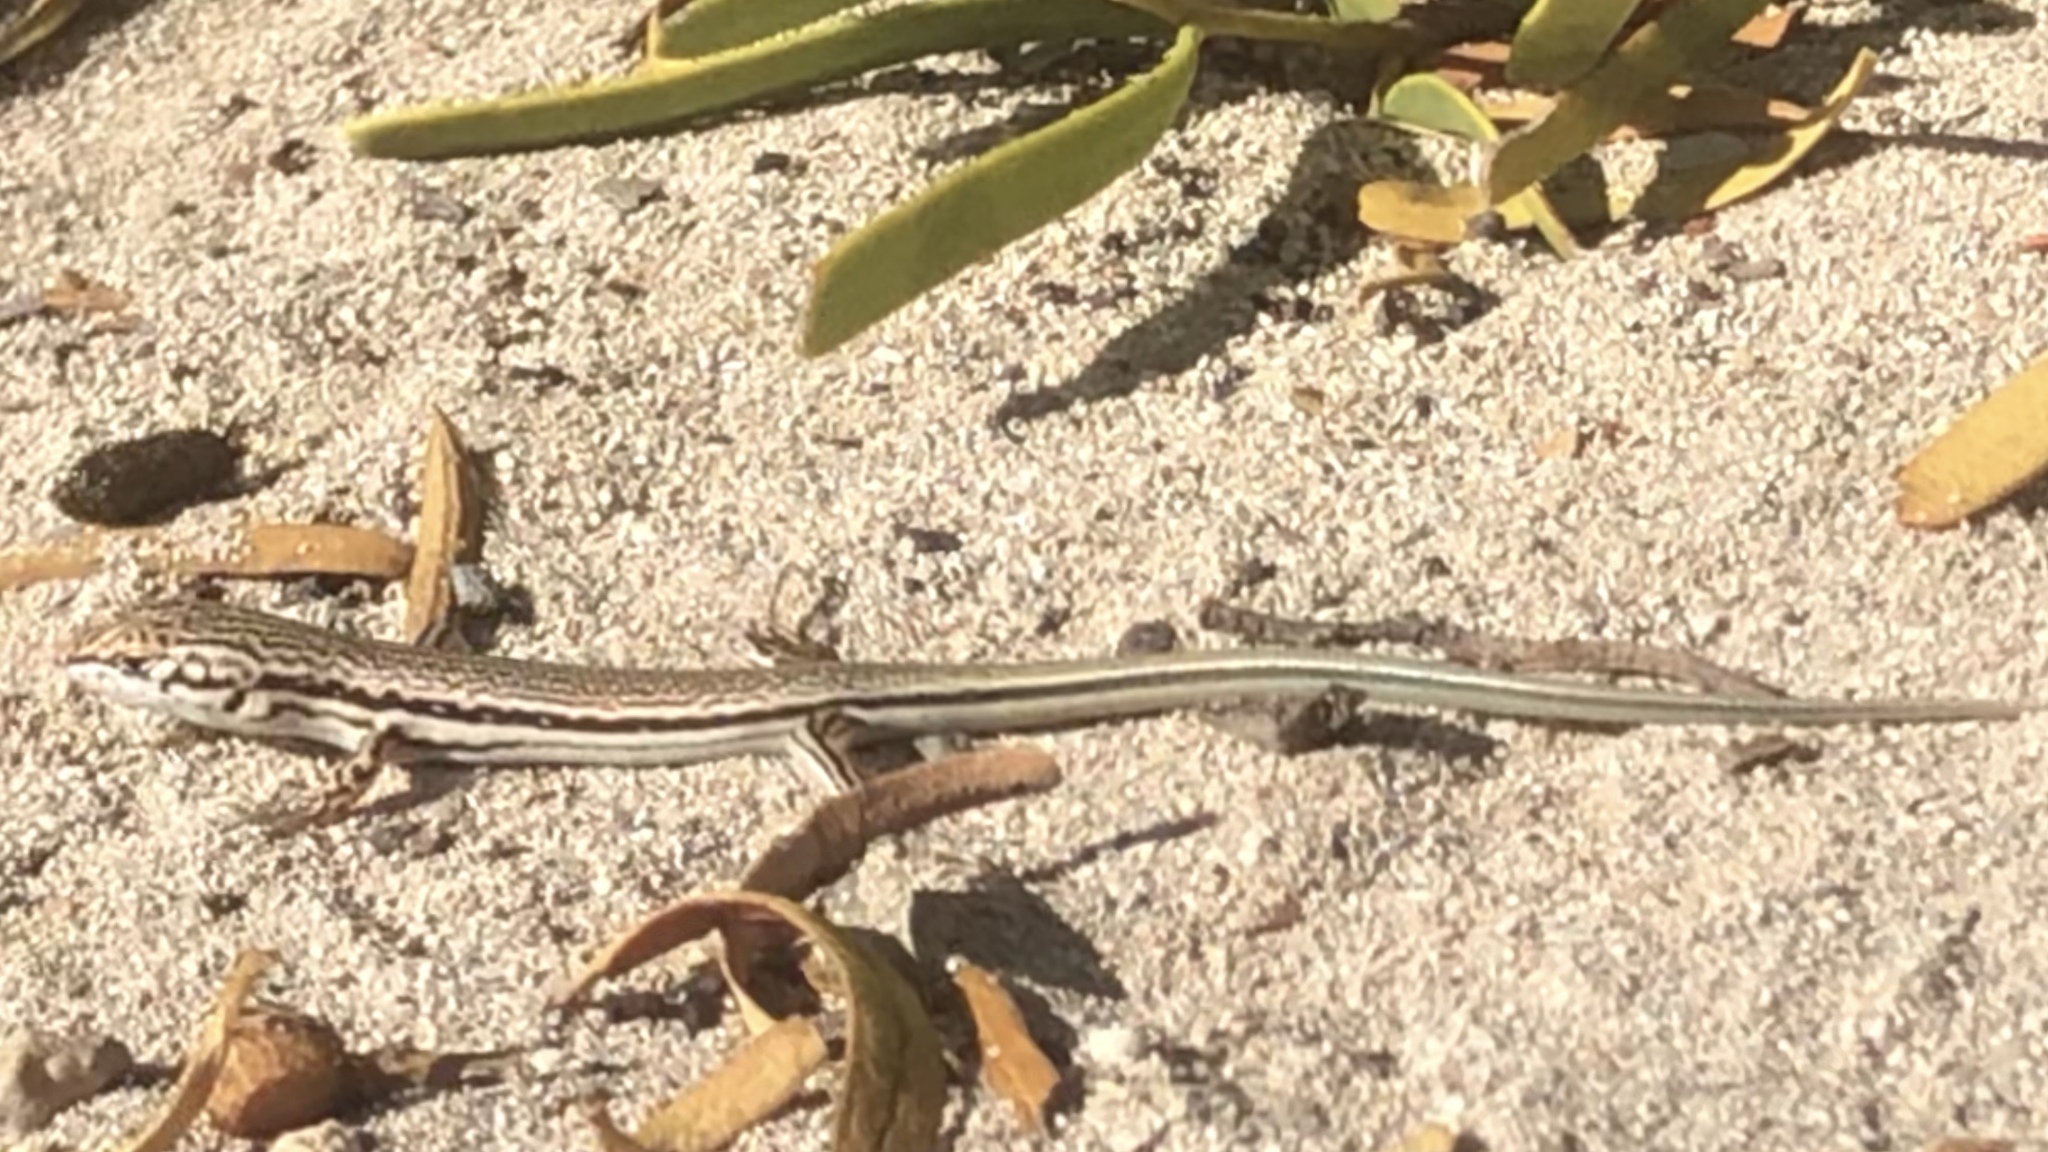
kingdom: Animalia
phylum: Chordata
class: Squamata
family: Scincidae
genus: Ctenotus
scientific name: Ctenotus euclae
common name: Wedgesnout ctenotus
